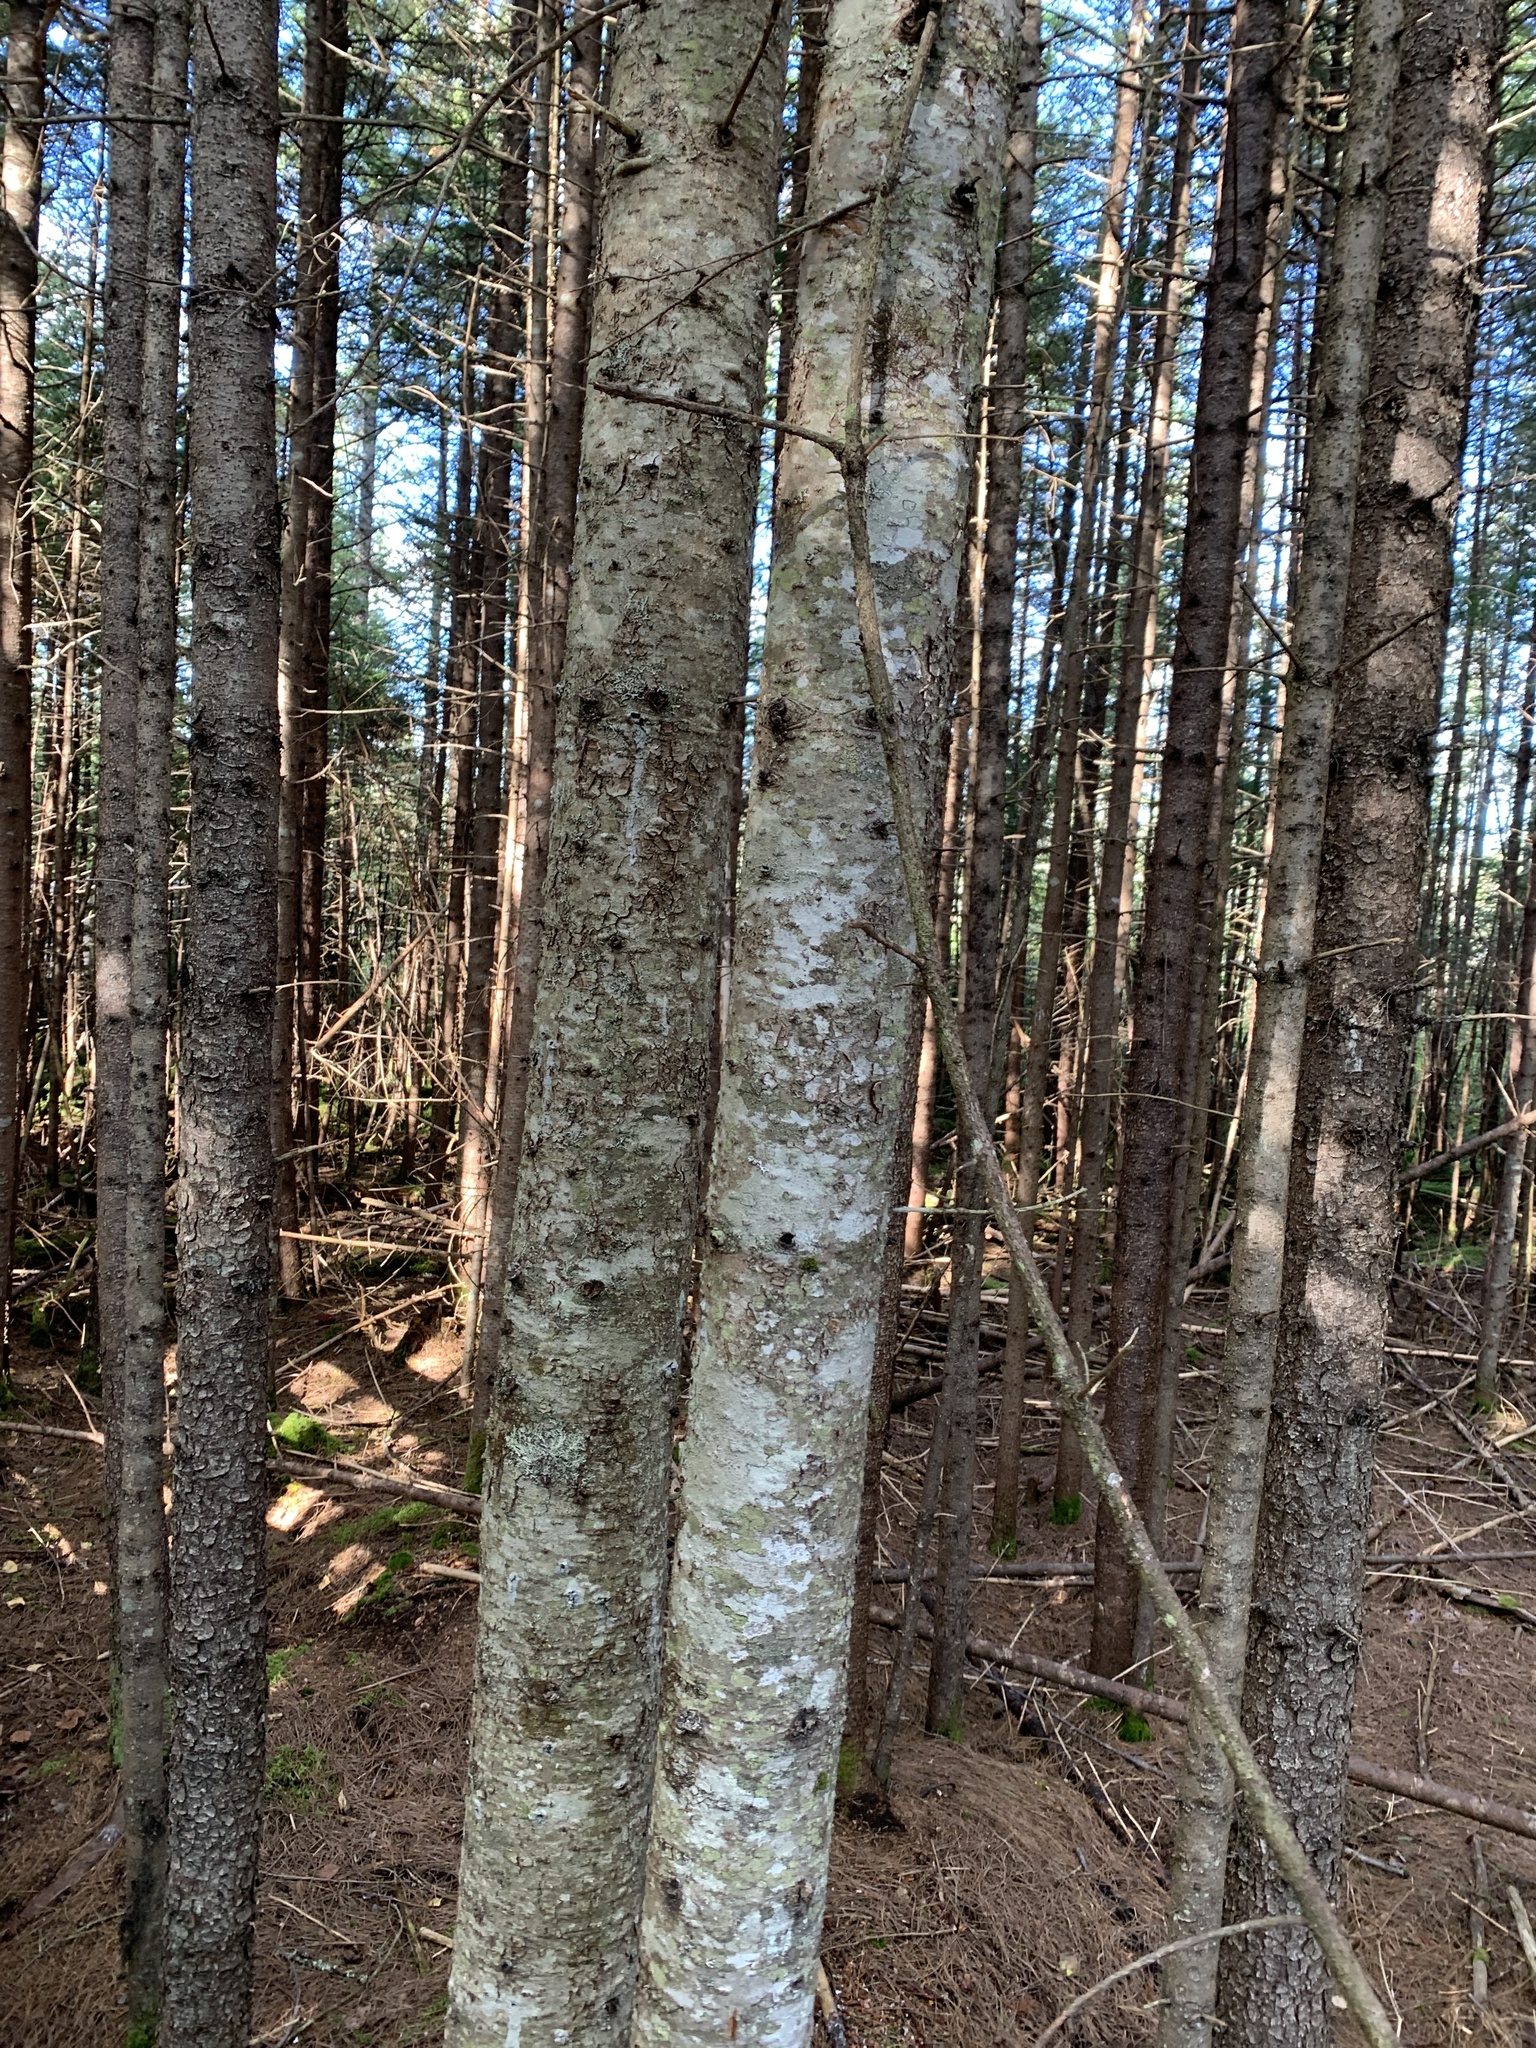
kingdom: Plantae
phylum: Tracheophyta
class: Pinopsida
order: Pinales
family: Pinaceae
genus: Abies
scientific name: Abies balsamea
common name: Balsam fir
